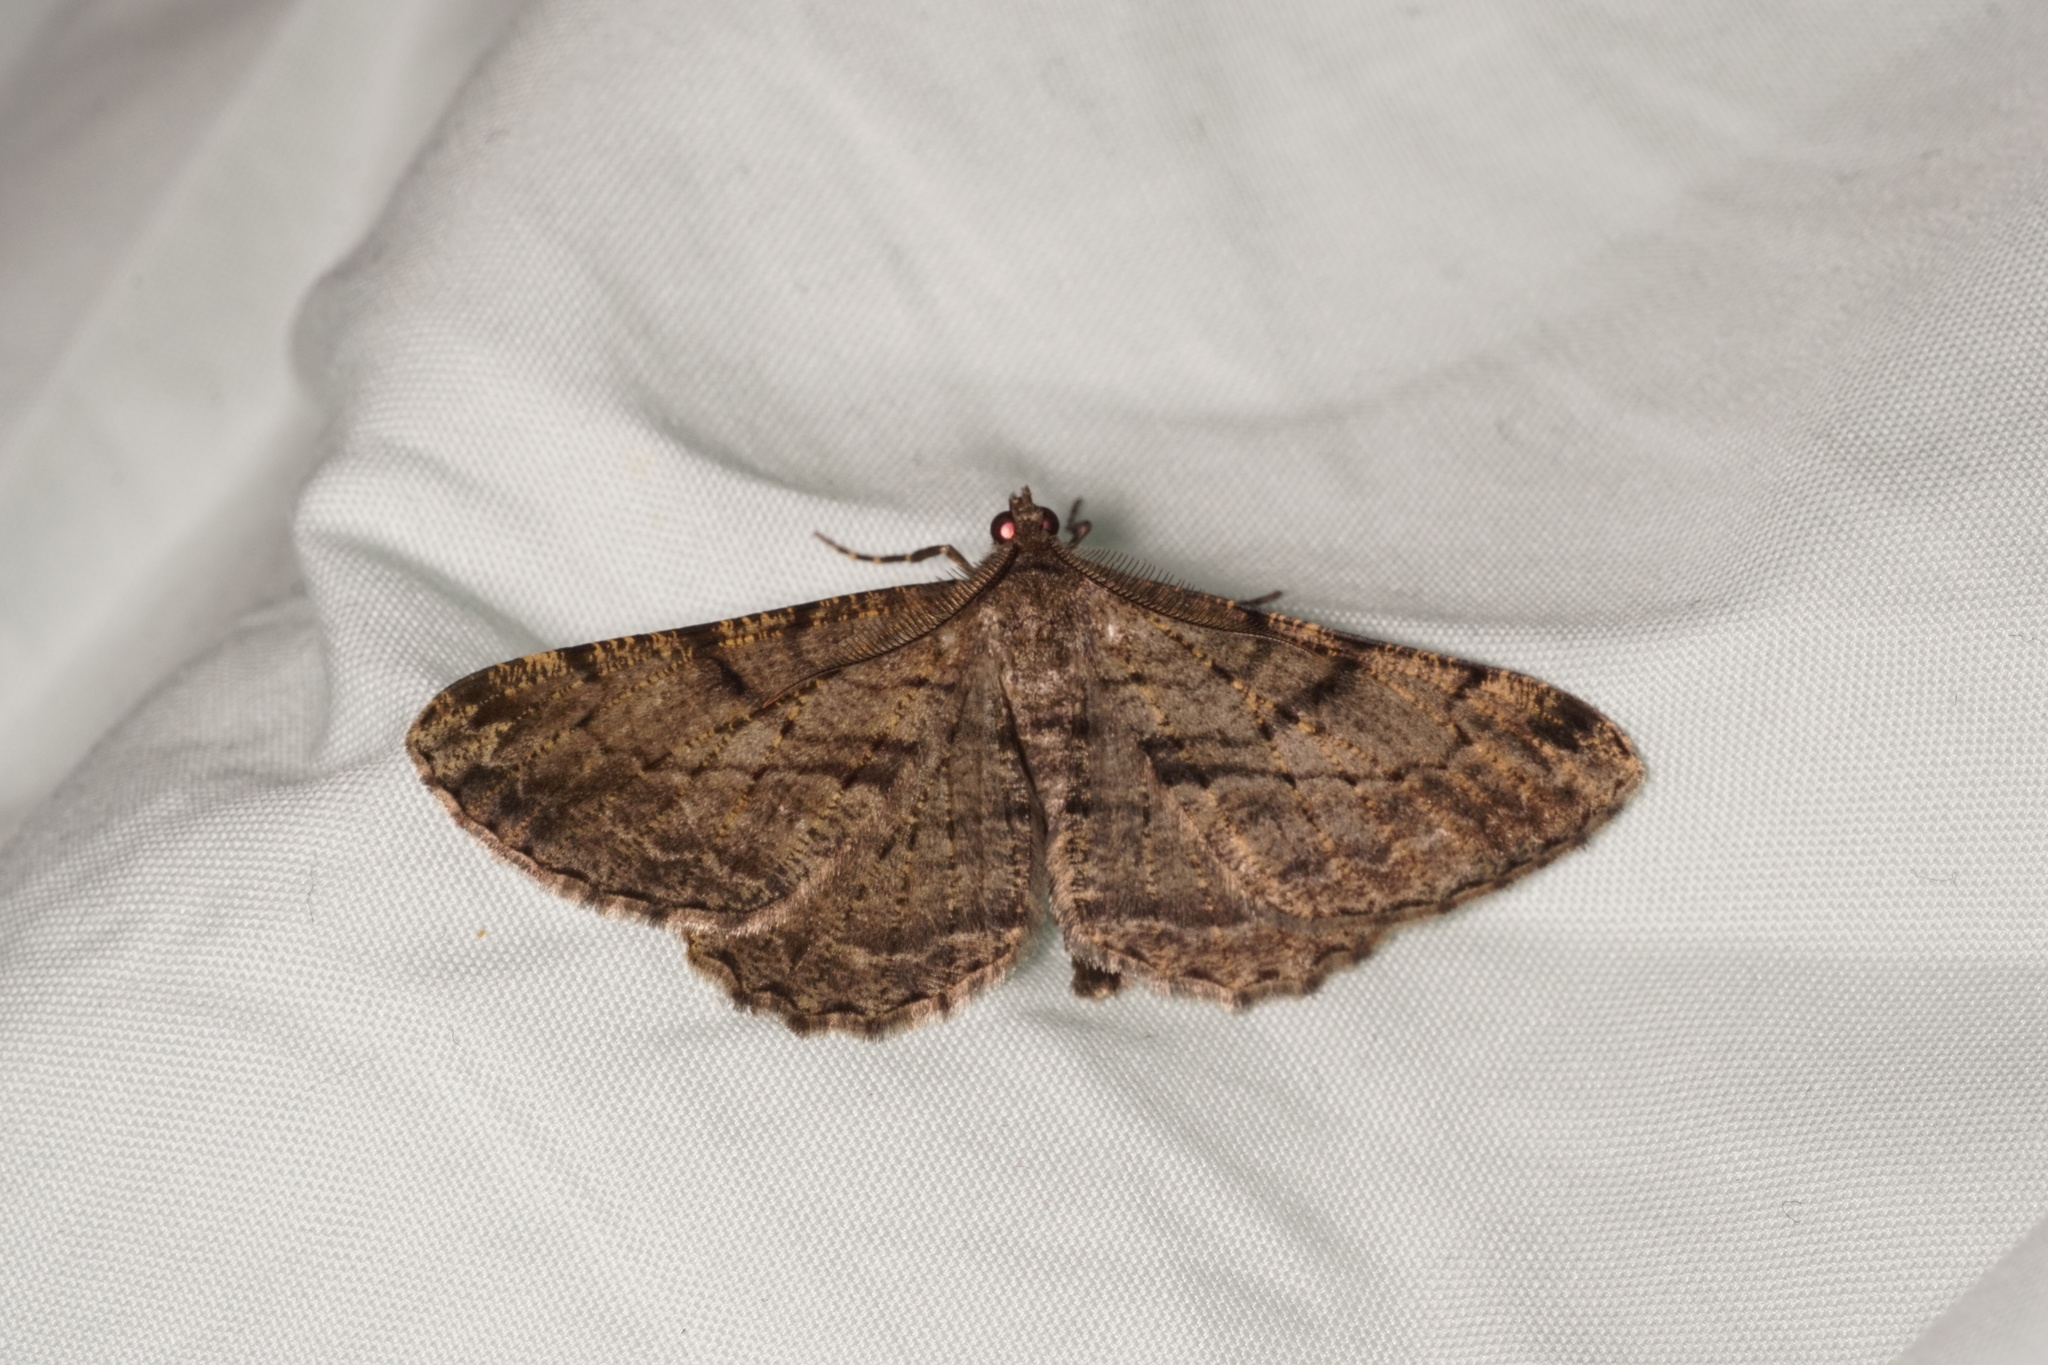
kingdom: Animalia
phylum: Arthropoda
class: Insecta
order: Lepidoptera
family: Geometridae
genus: Peribatodes
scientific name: Peribatodes rhomboidaria
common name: Willow beauty
